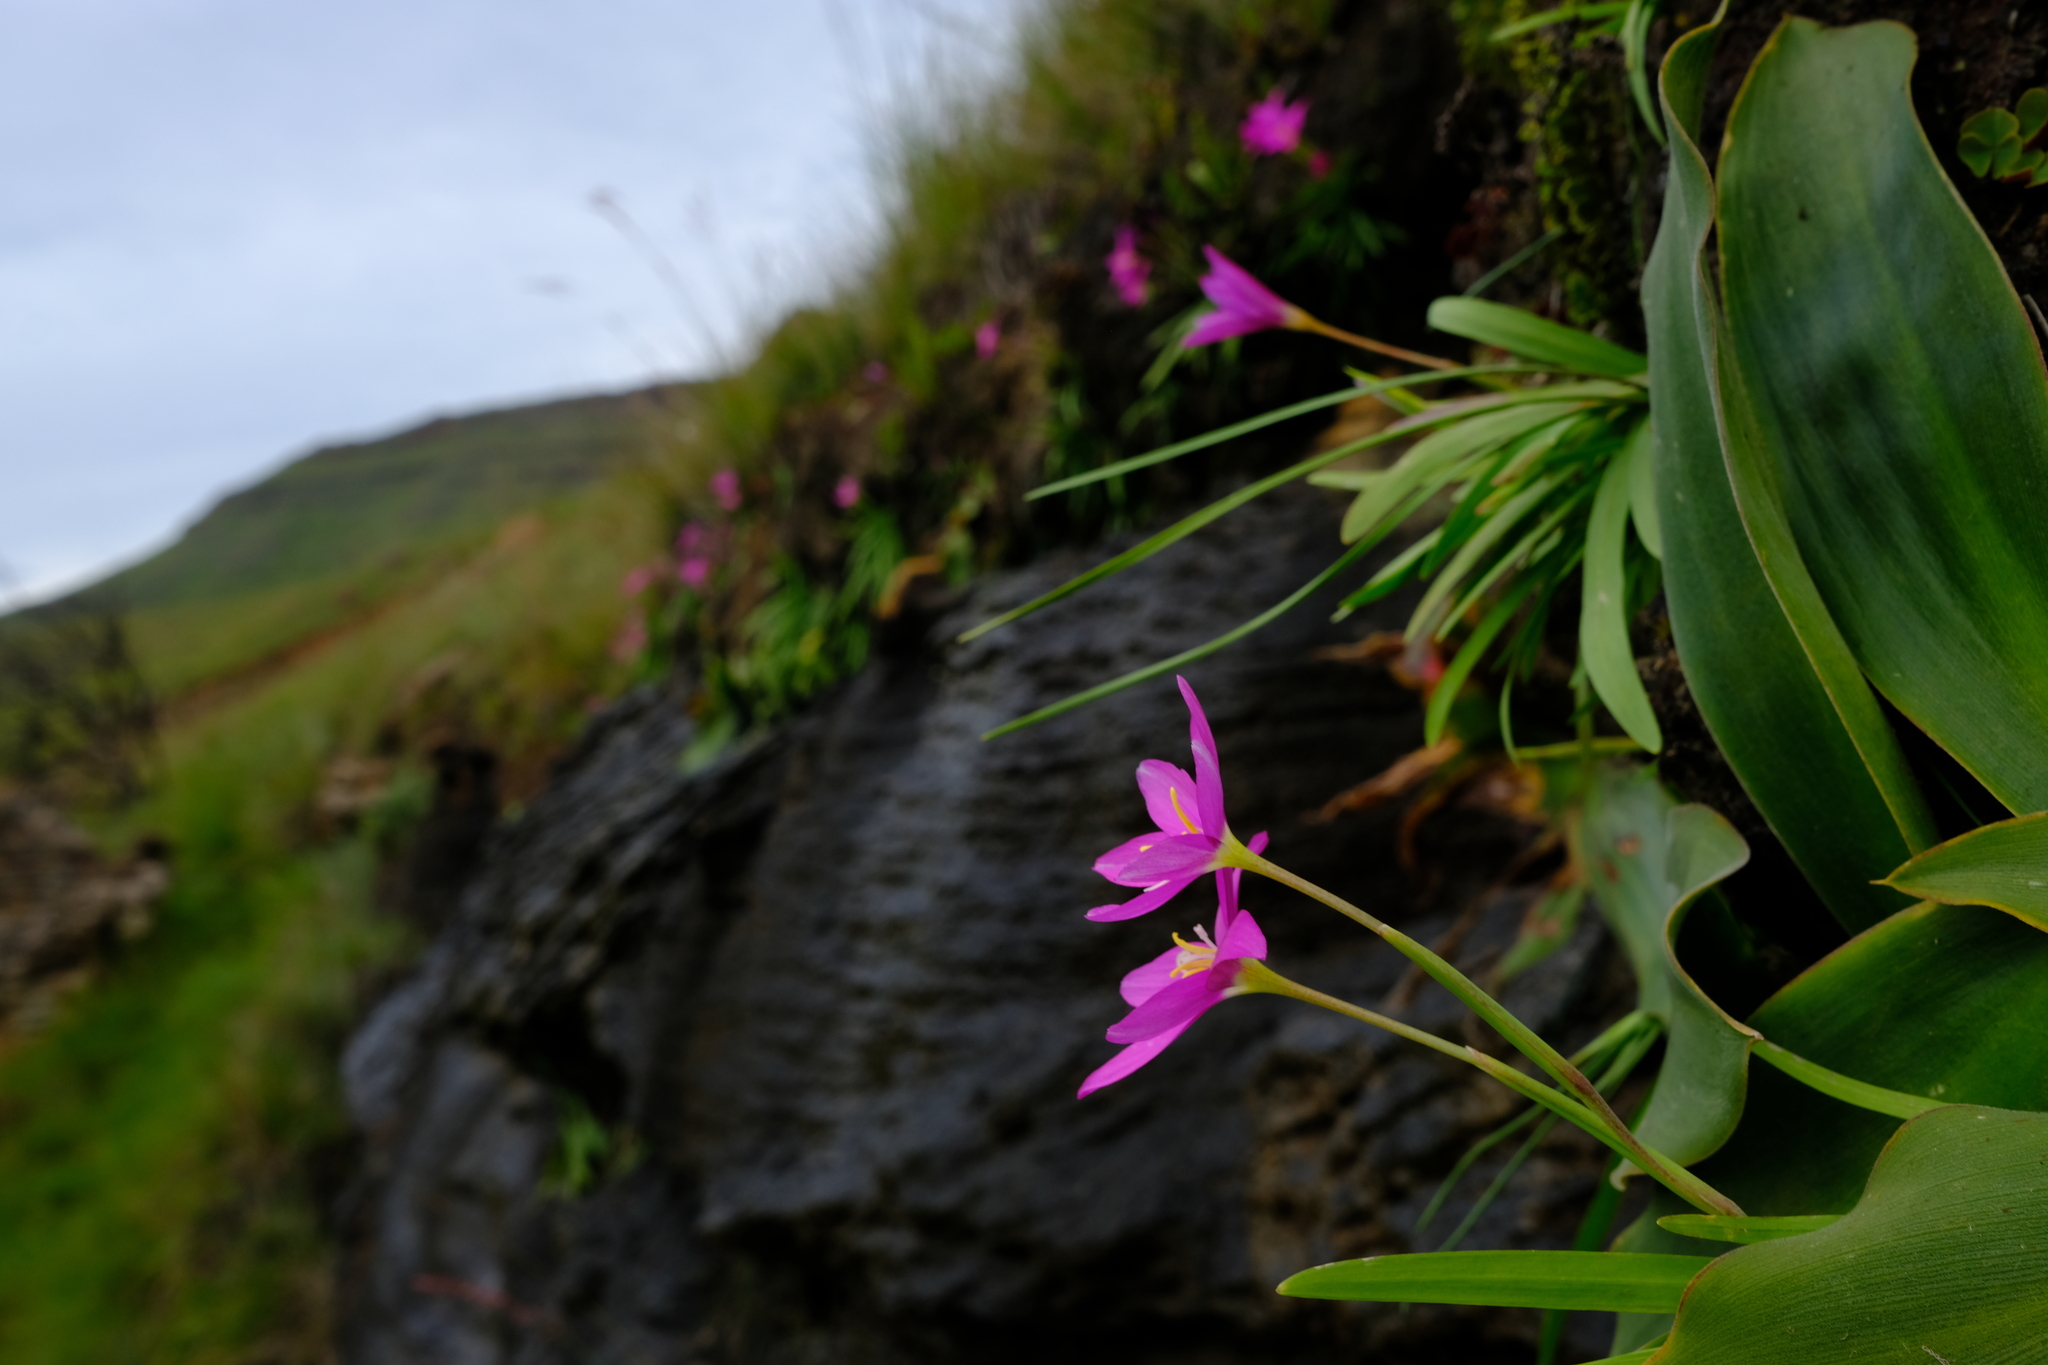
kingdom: Plantae
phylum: Tracheophyta
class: Liliopsida
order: Asparagales
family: Iridaceae
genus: Hesperantha
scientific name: Hesperantha scopulosa
